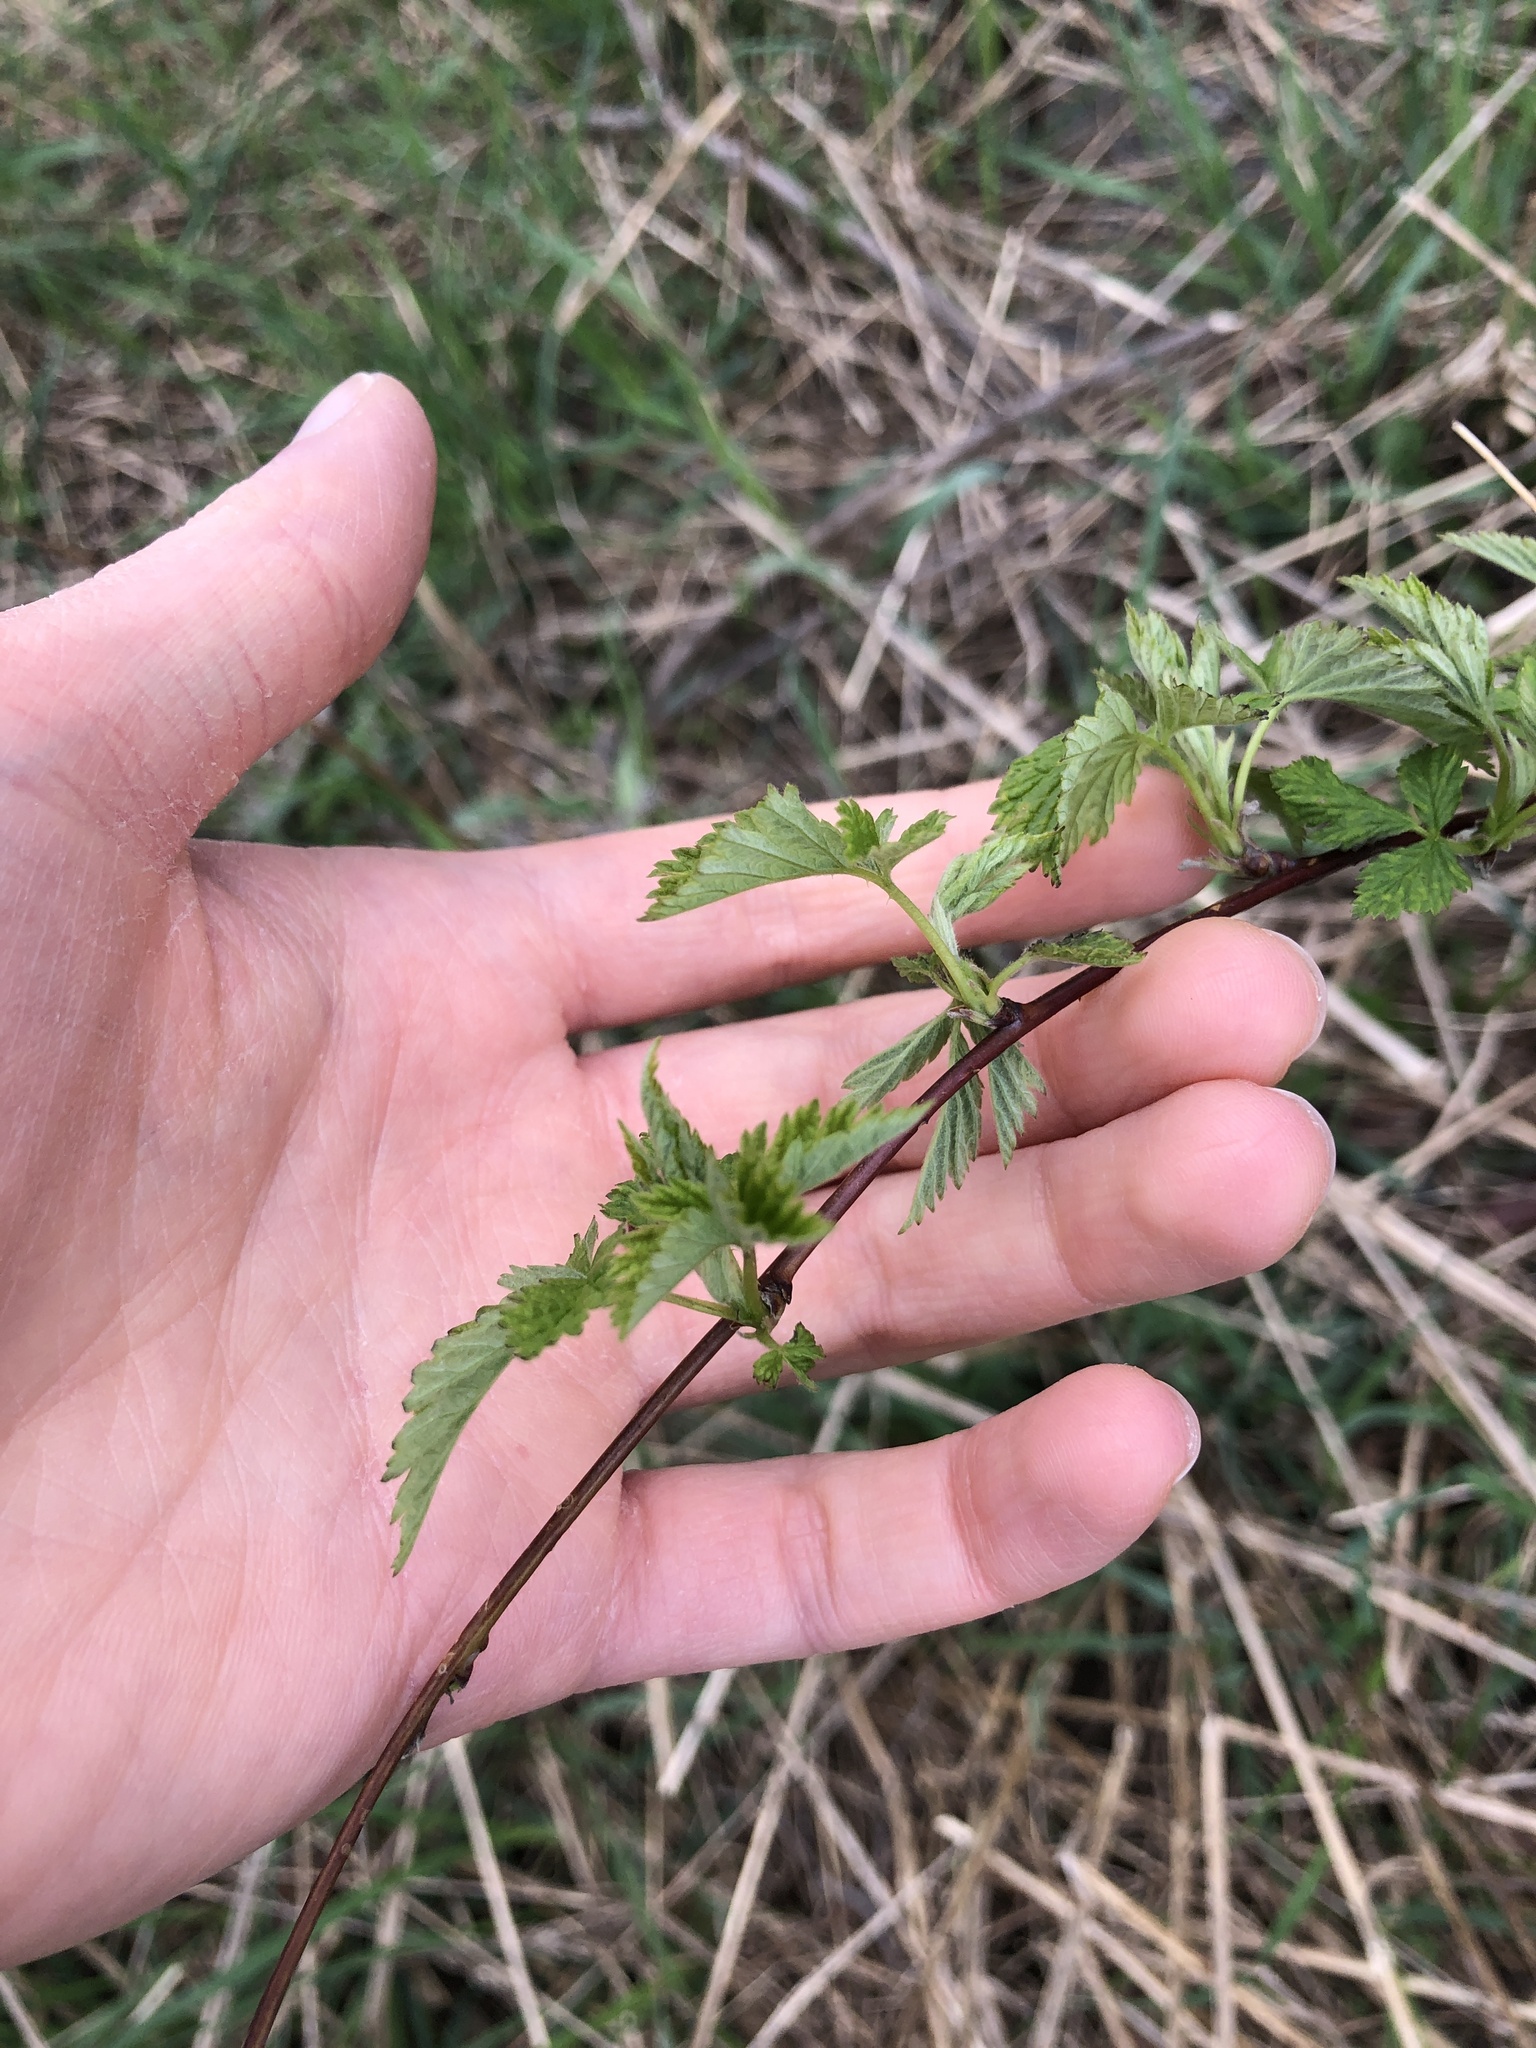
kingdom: Plantae
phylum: Tracheophyta
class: Magnoliopsida
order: Rosales
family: Rosaceae
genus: Rubus
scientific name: Rubus occidentalis
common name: Black raspberry
